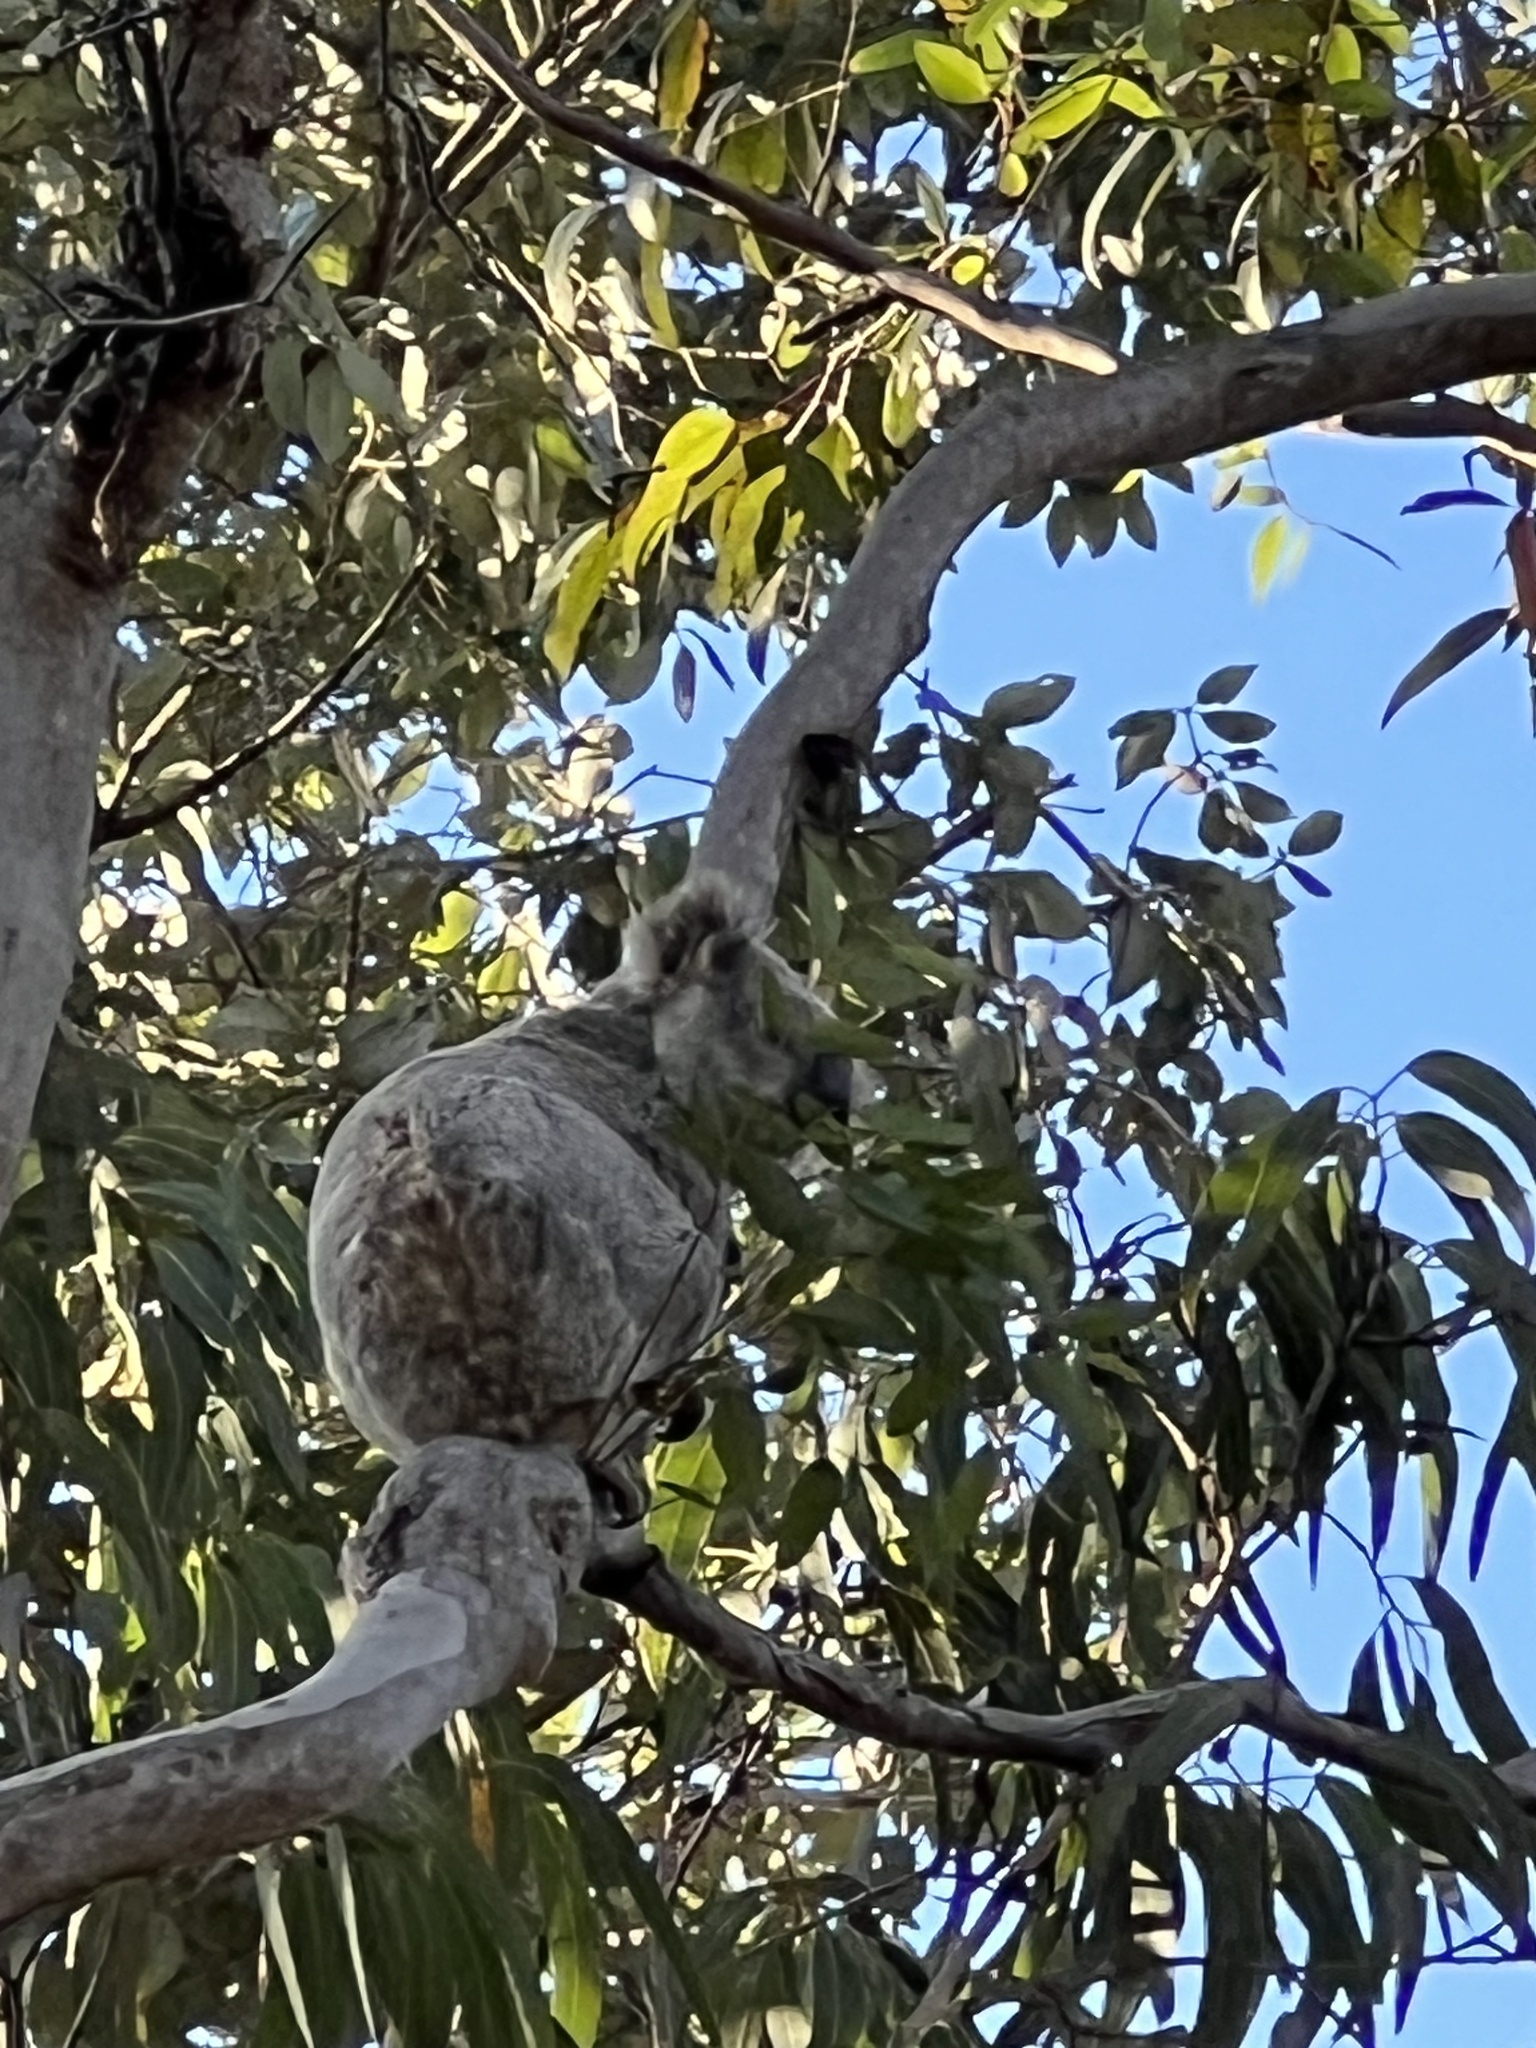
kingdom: Animalia
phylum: Chordata
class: Mammalia
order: Diprotodontia
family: Phascolarctidae
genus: Phascolarctos
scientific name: Phascolarctos cinereus
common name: Koala
